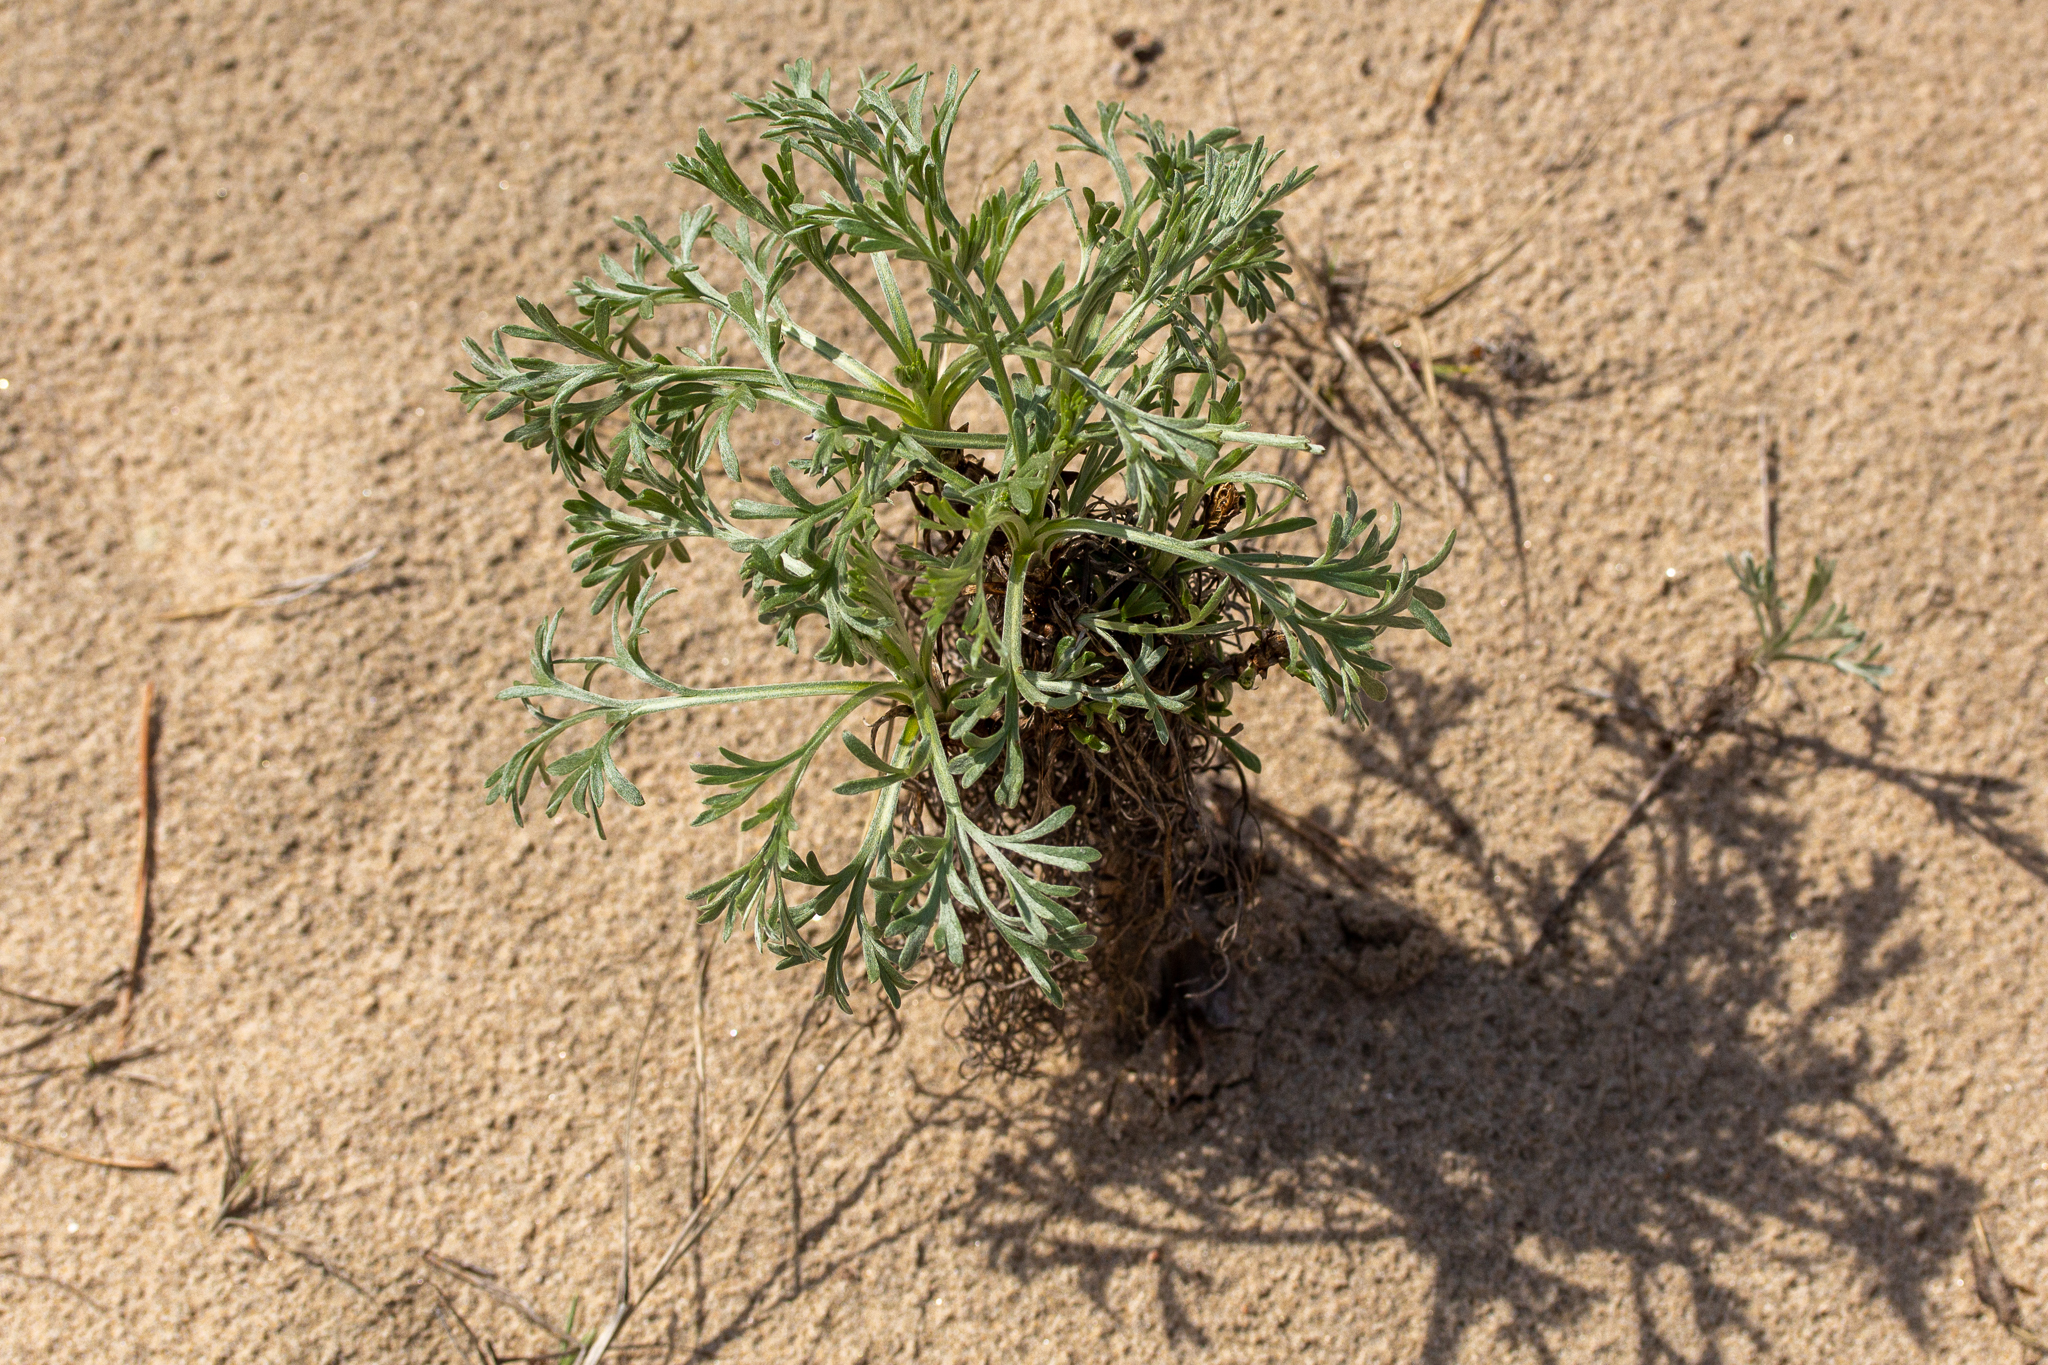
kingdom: Plantae
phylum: Tracheophyta
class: Magnoliopsida
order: Asterales
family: Asteraceae
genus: Artemisia
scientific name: Artemisia campestris
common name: Field wormwood
